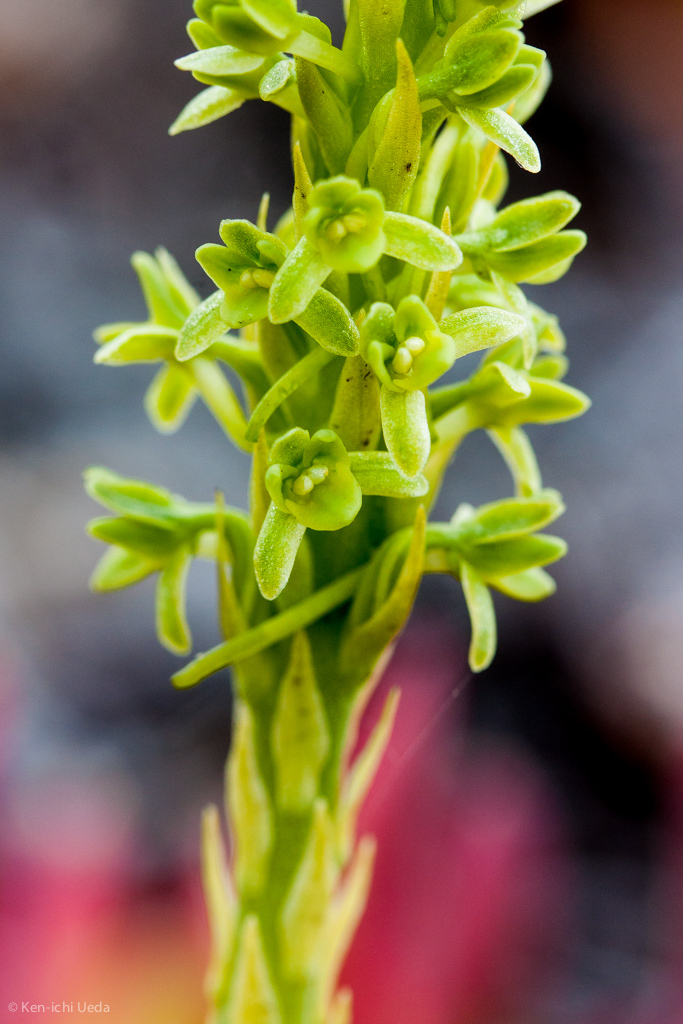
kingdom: Plantae
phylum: Tracheophyta
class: Liliopsida
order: Asparagales
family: Orchidaceae
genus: Platanthera
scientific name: Platanthera michaelii
